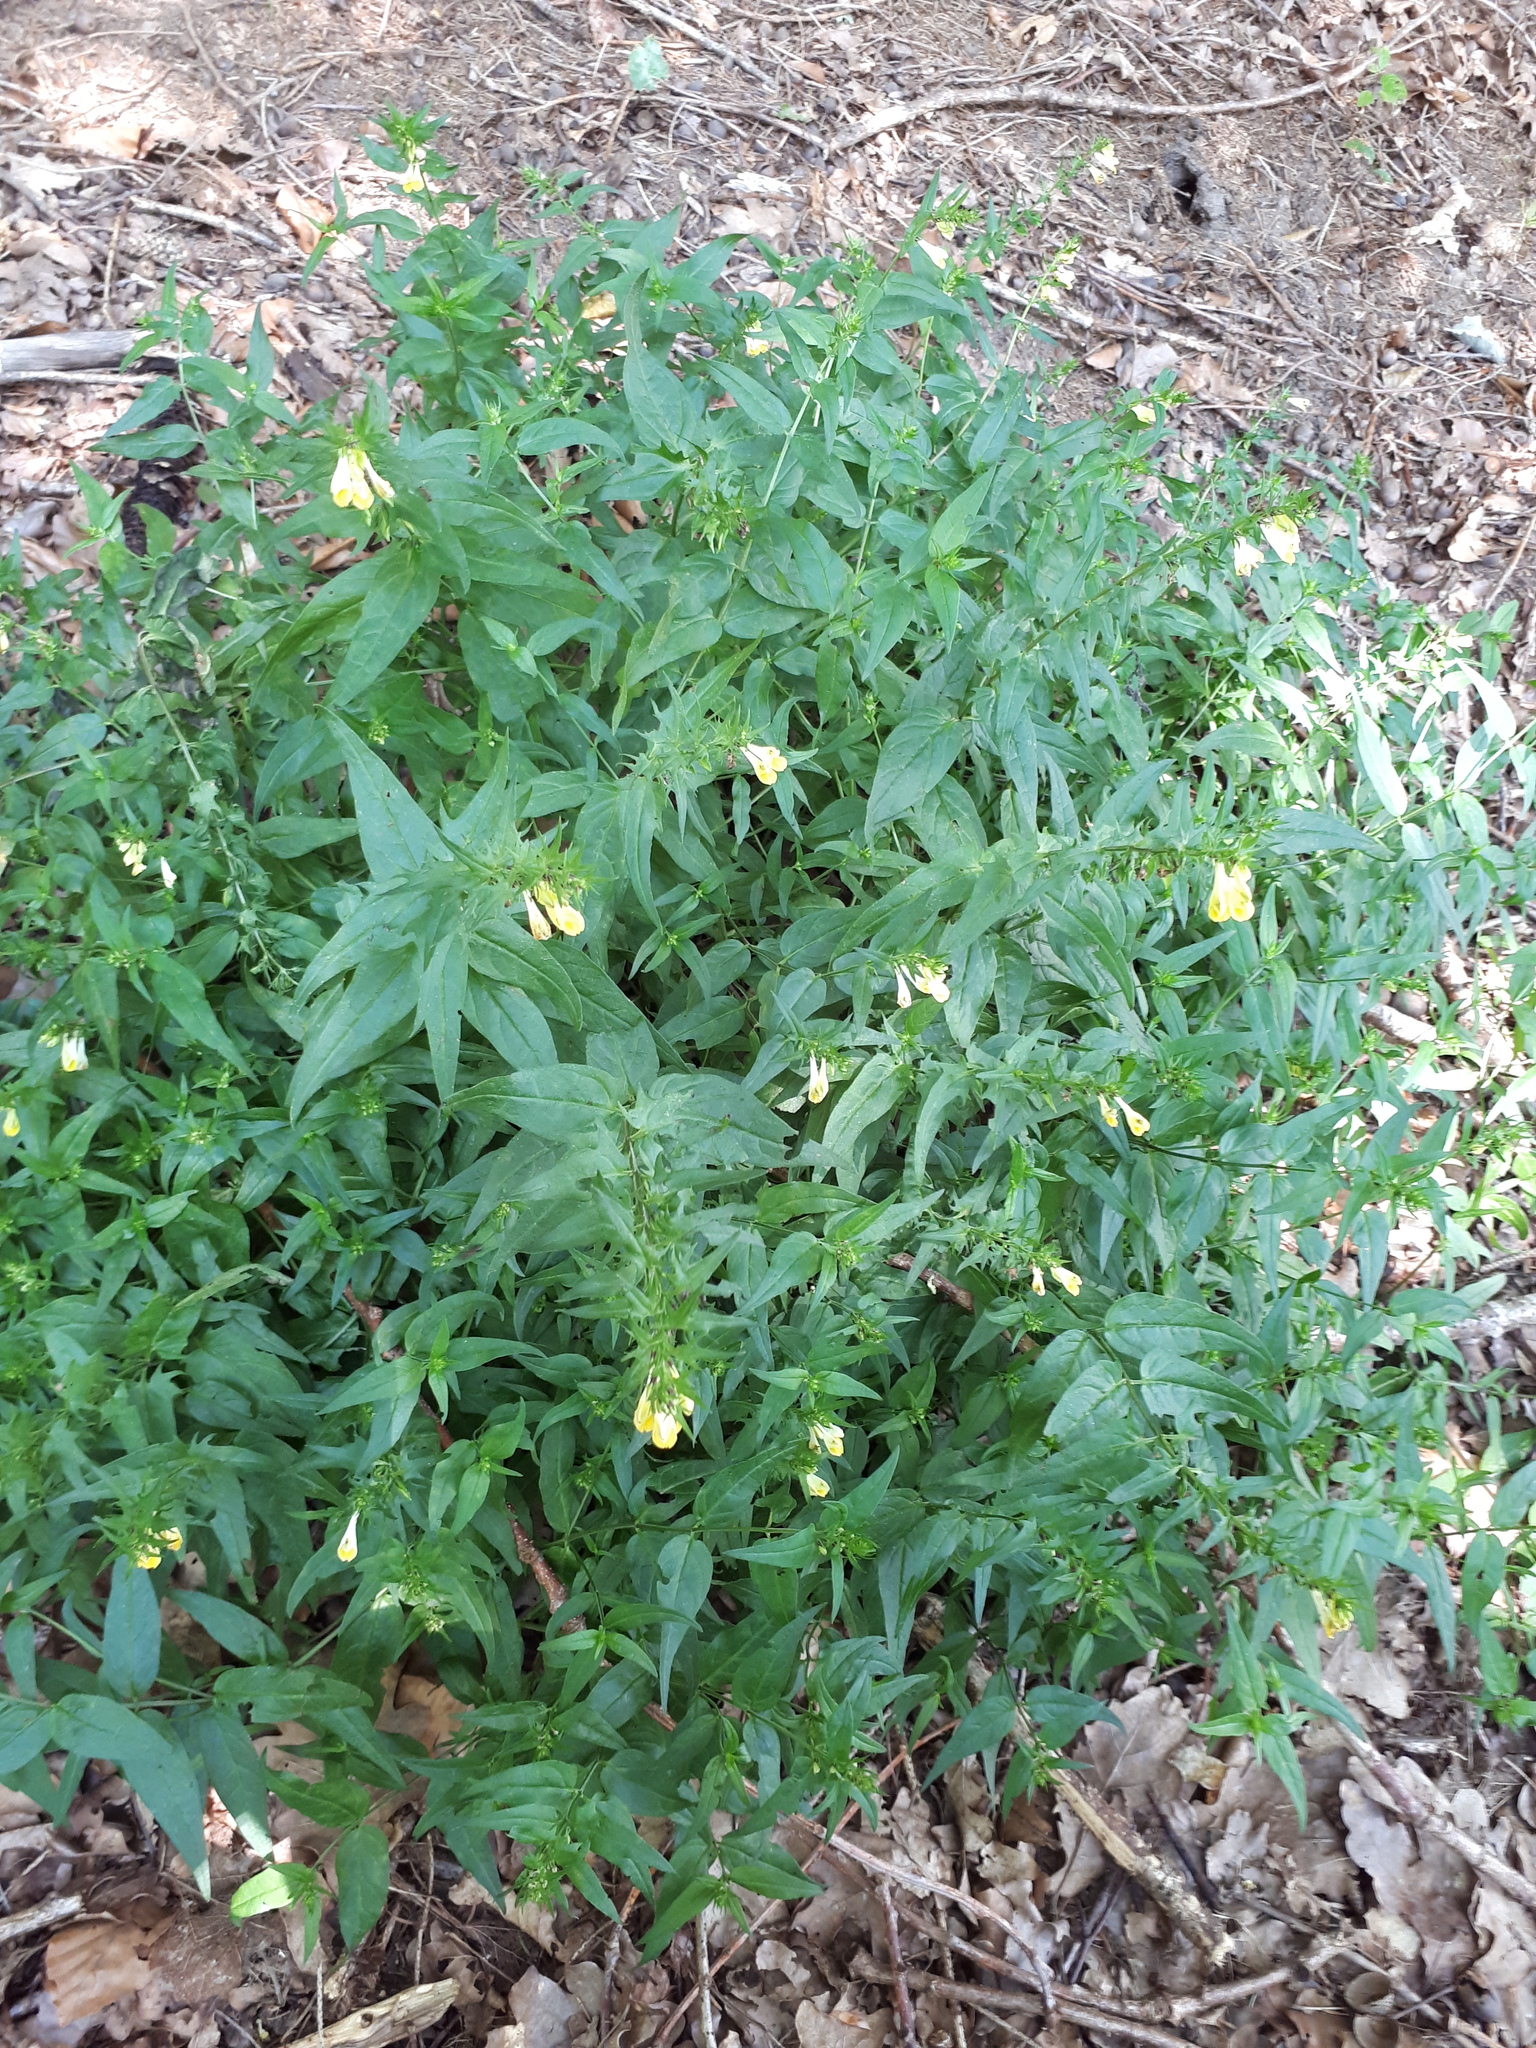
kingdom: Plantae
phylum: Tracheophyta
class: Magnoliopsida
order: Lamiales
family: Orobanchaceae
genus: Melampyrum
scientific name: Melampyrum pratense
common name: Common cow-wheat
